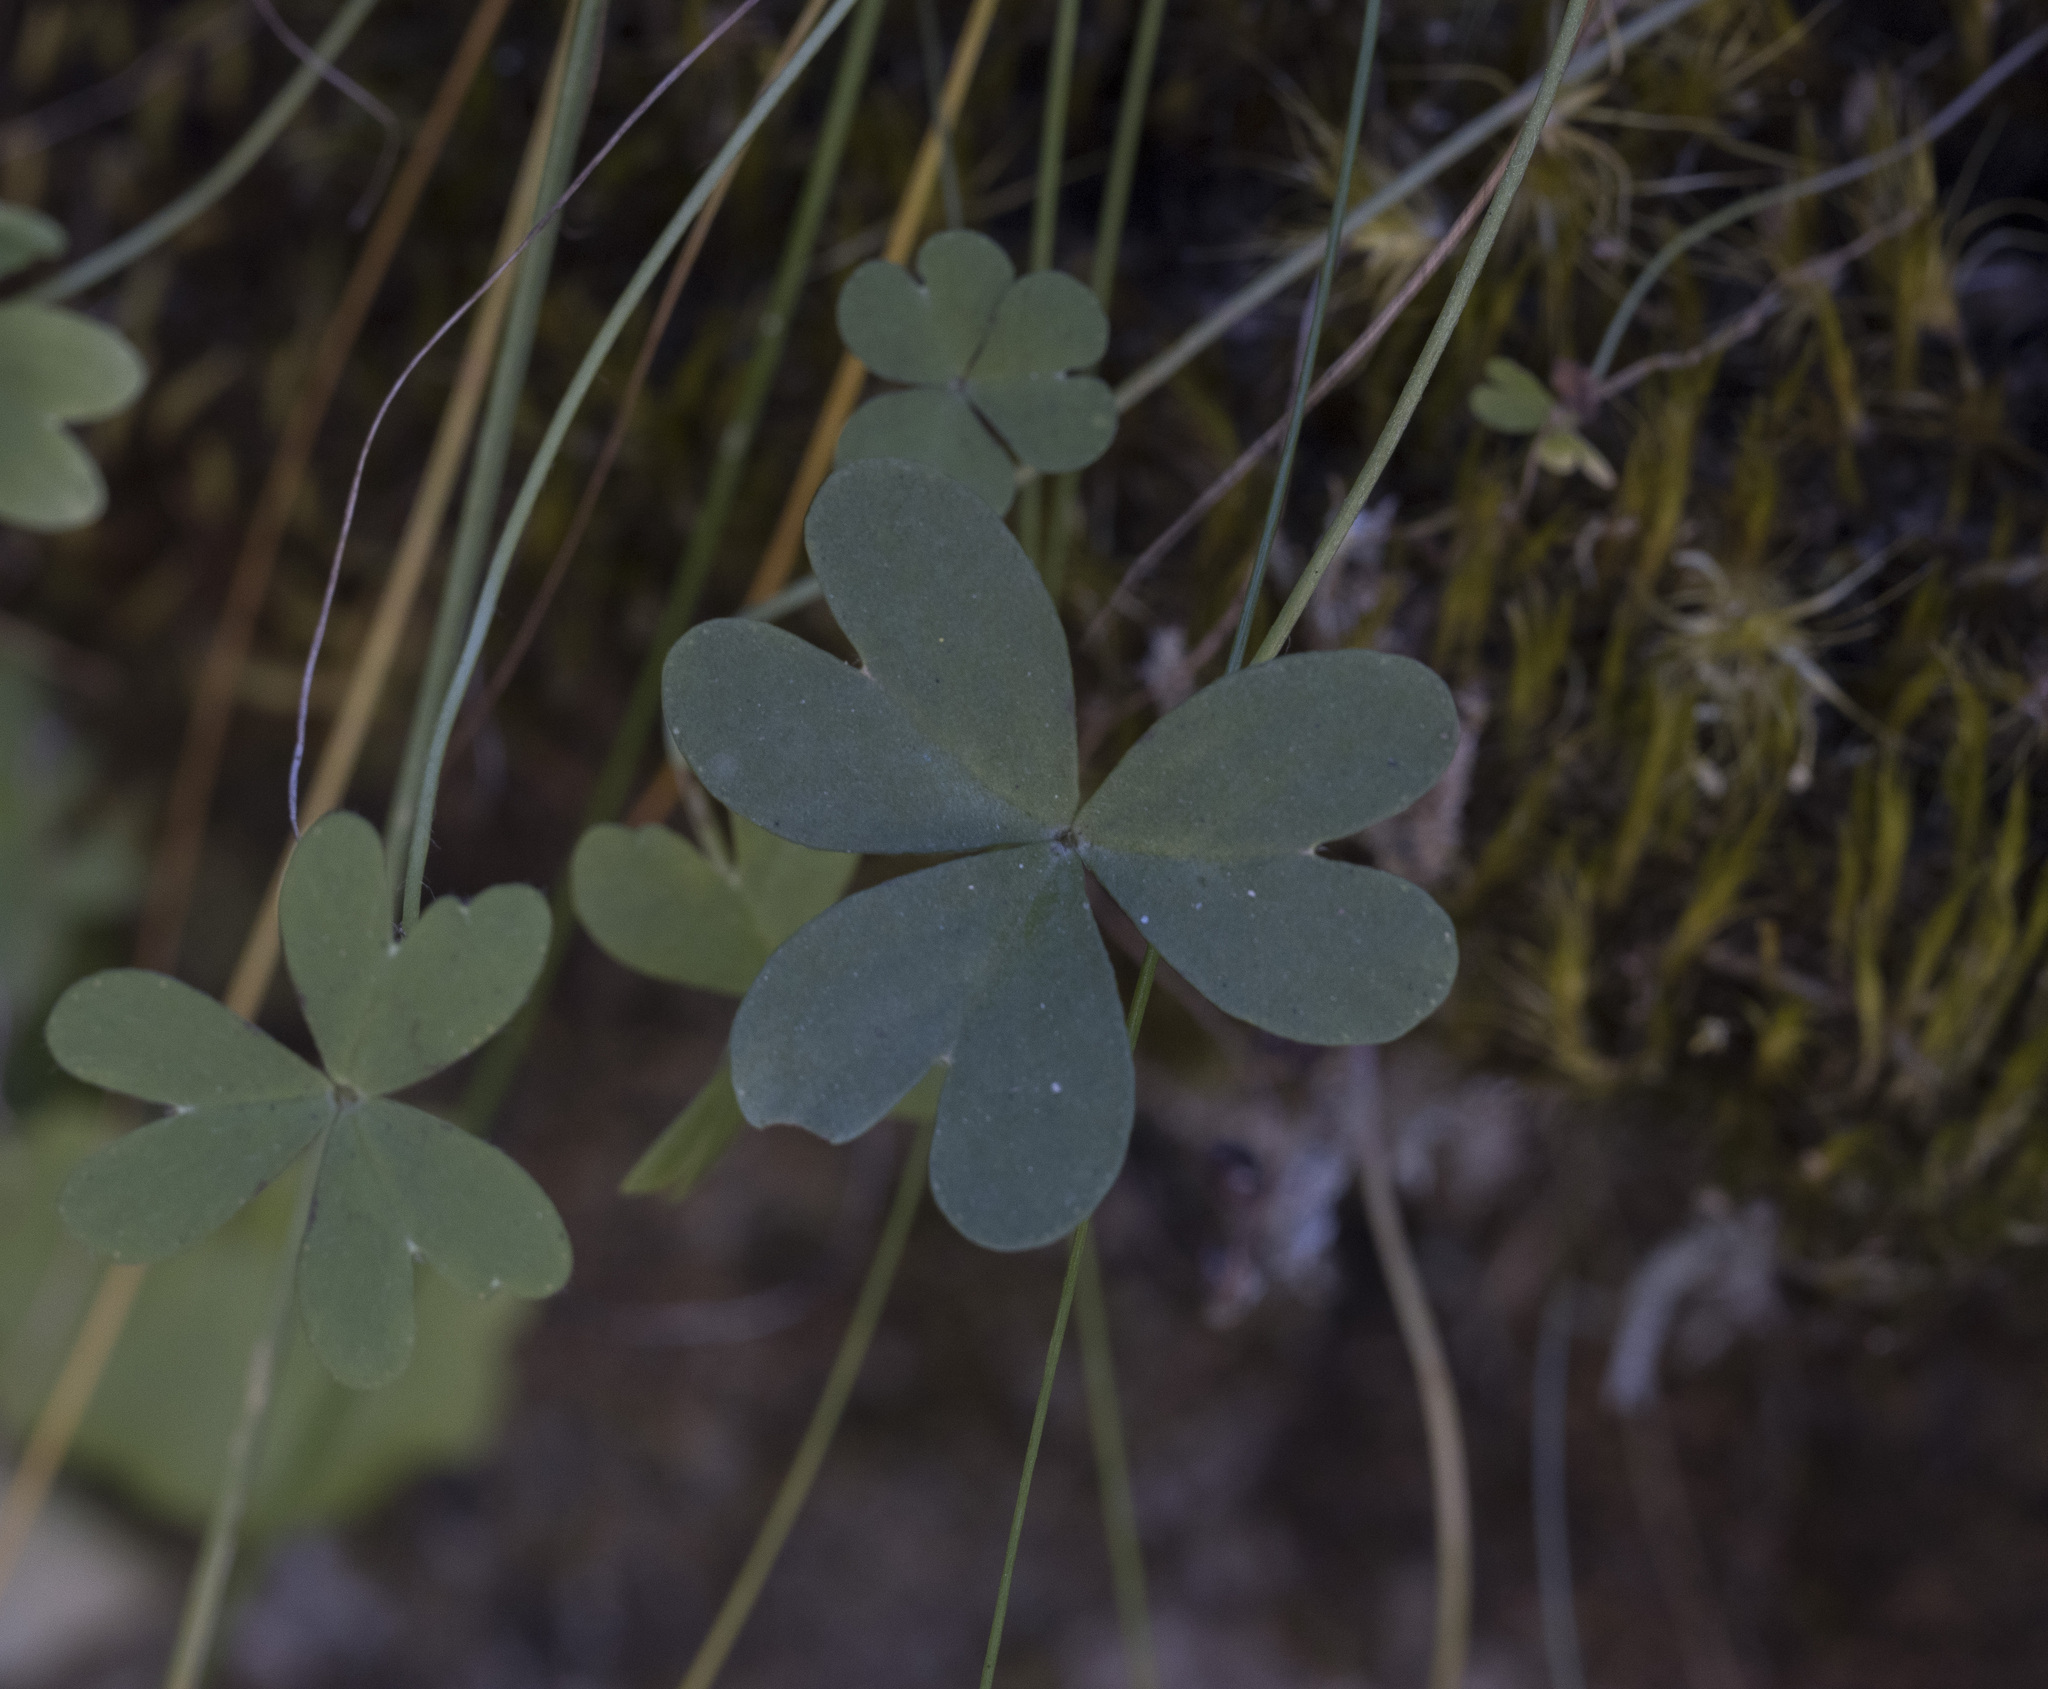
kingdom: Plantae
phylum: Tracheophyta
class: Magnoliopsida
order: Oxalidales
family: Oxalidaceae
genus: Oxalis
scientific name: Oxalis arenaria
